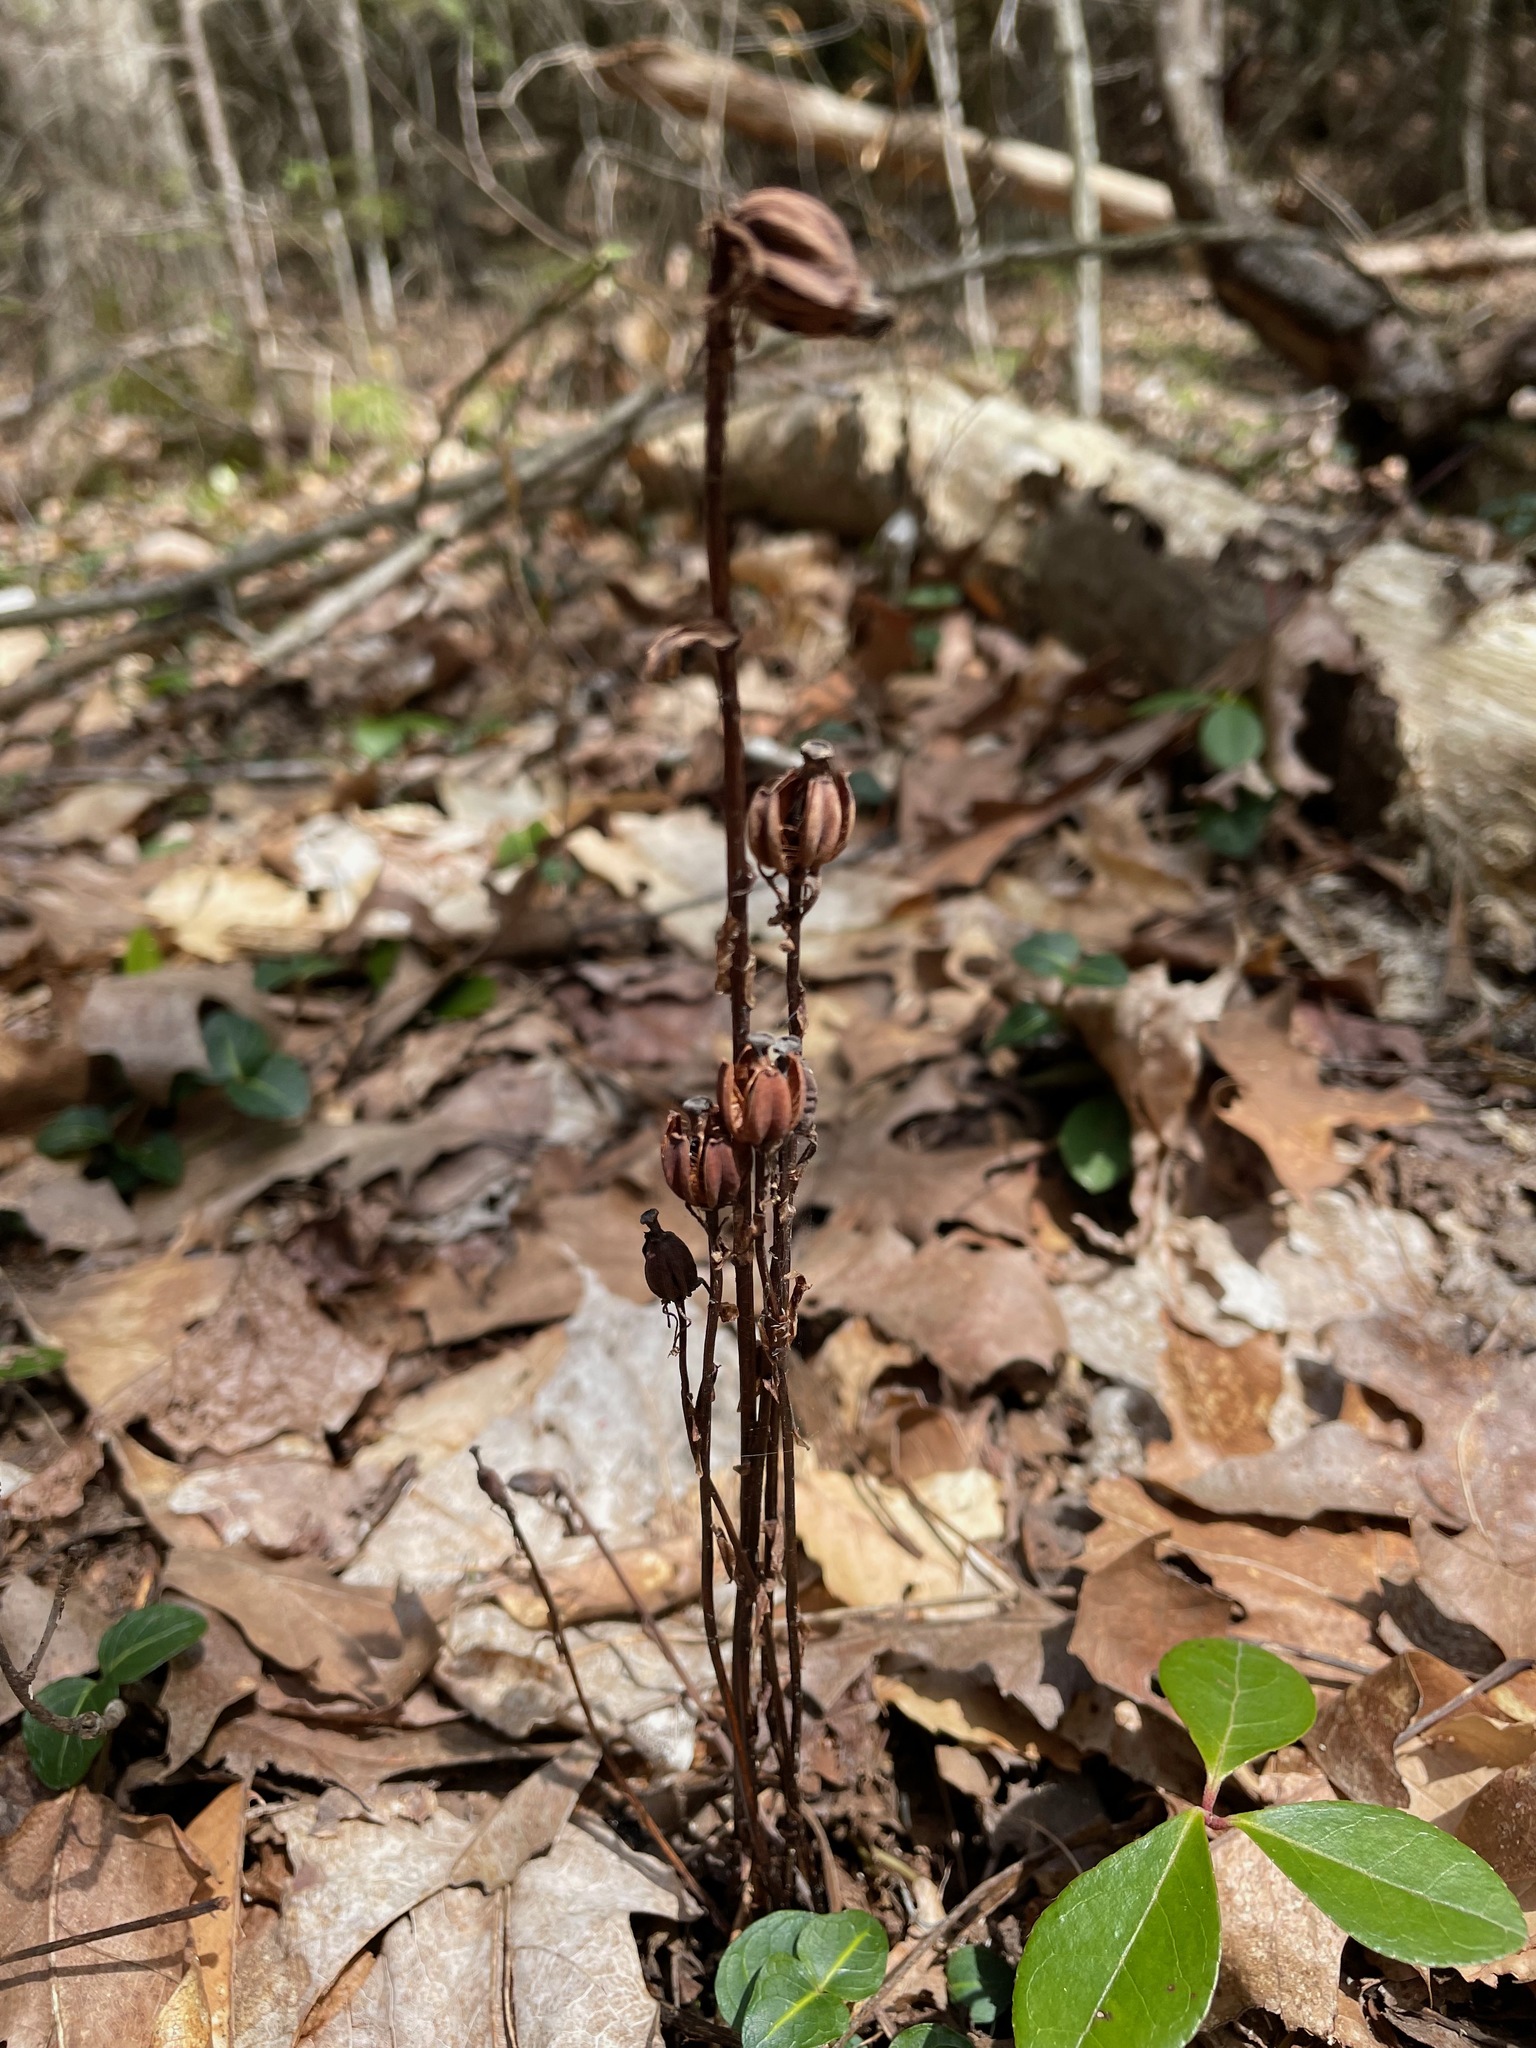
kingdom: Plantae
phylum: Tracheophyta
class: Magnoliopsida
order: Ericales
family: Ericaceae
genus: Monotropa
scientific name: Monotropa uniflora
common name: Convulsion root
